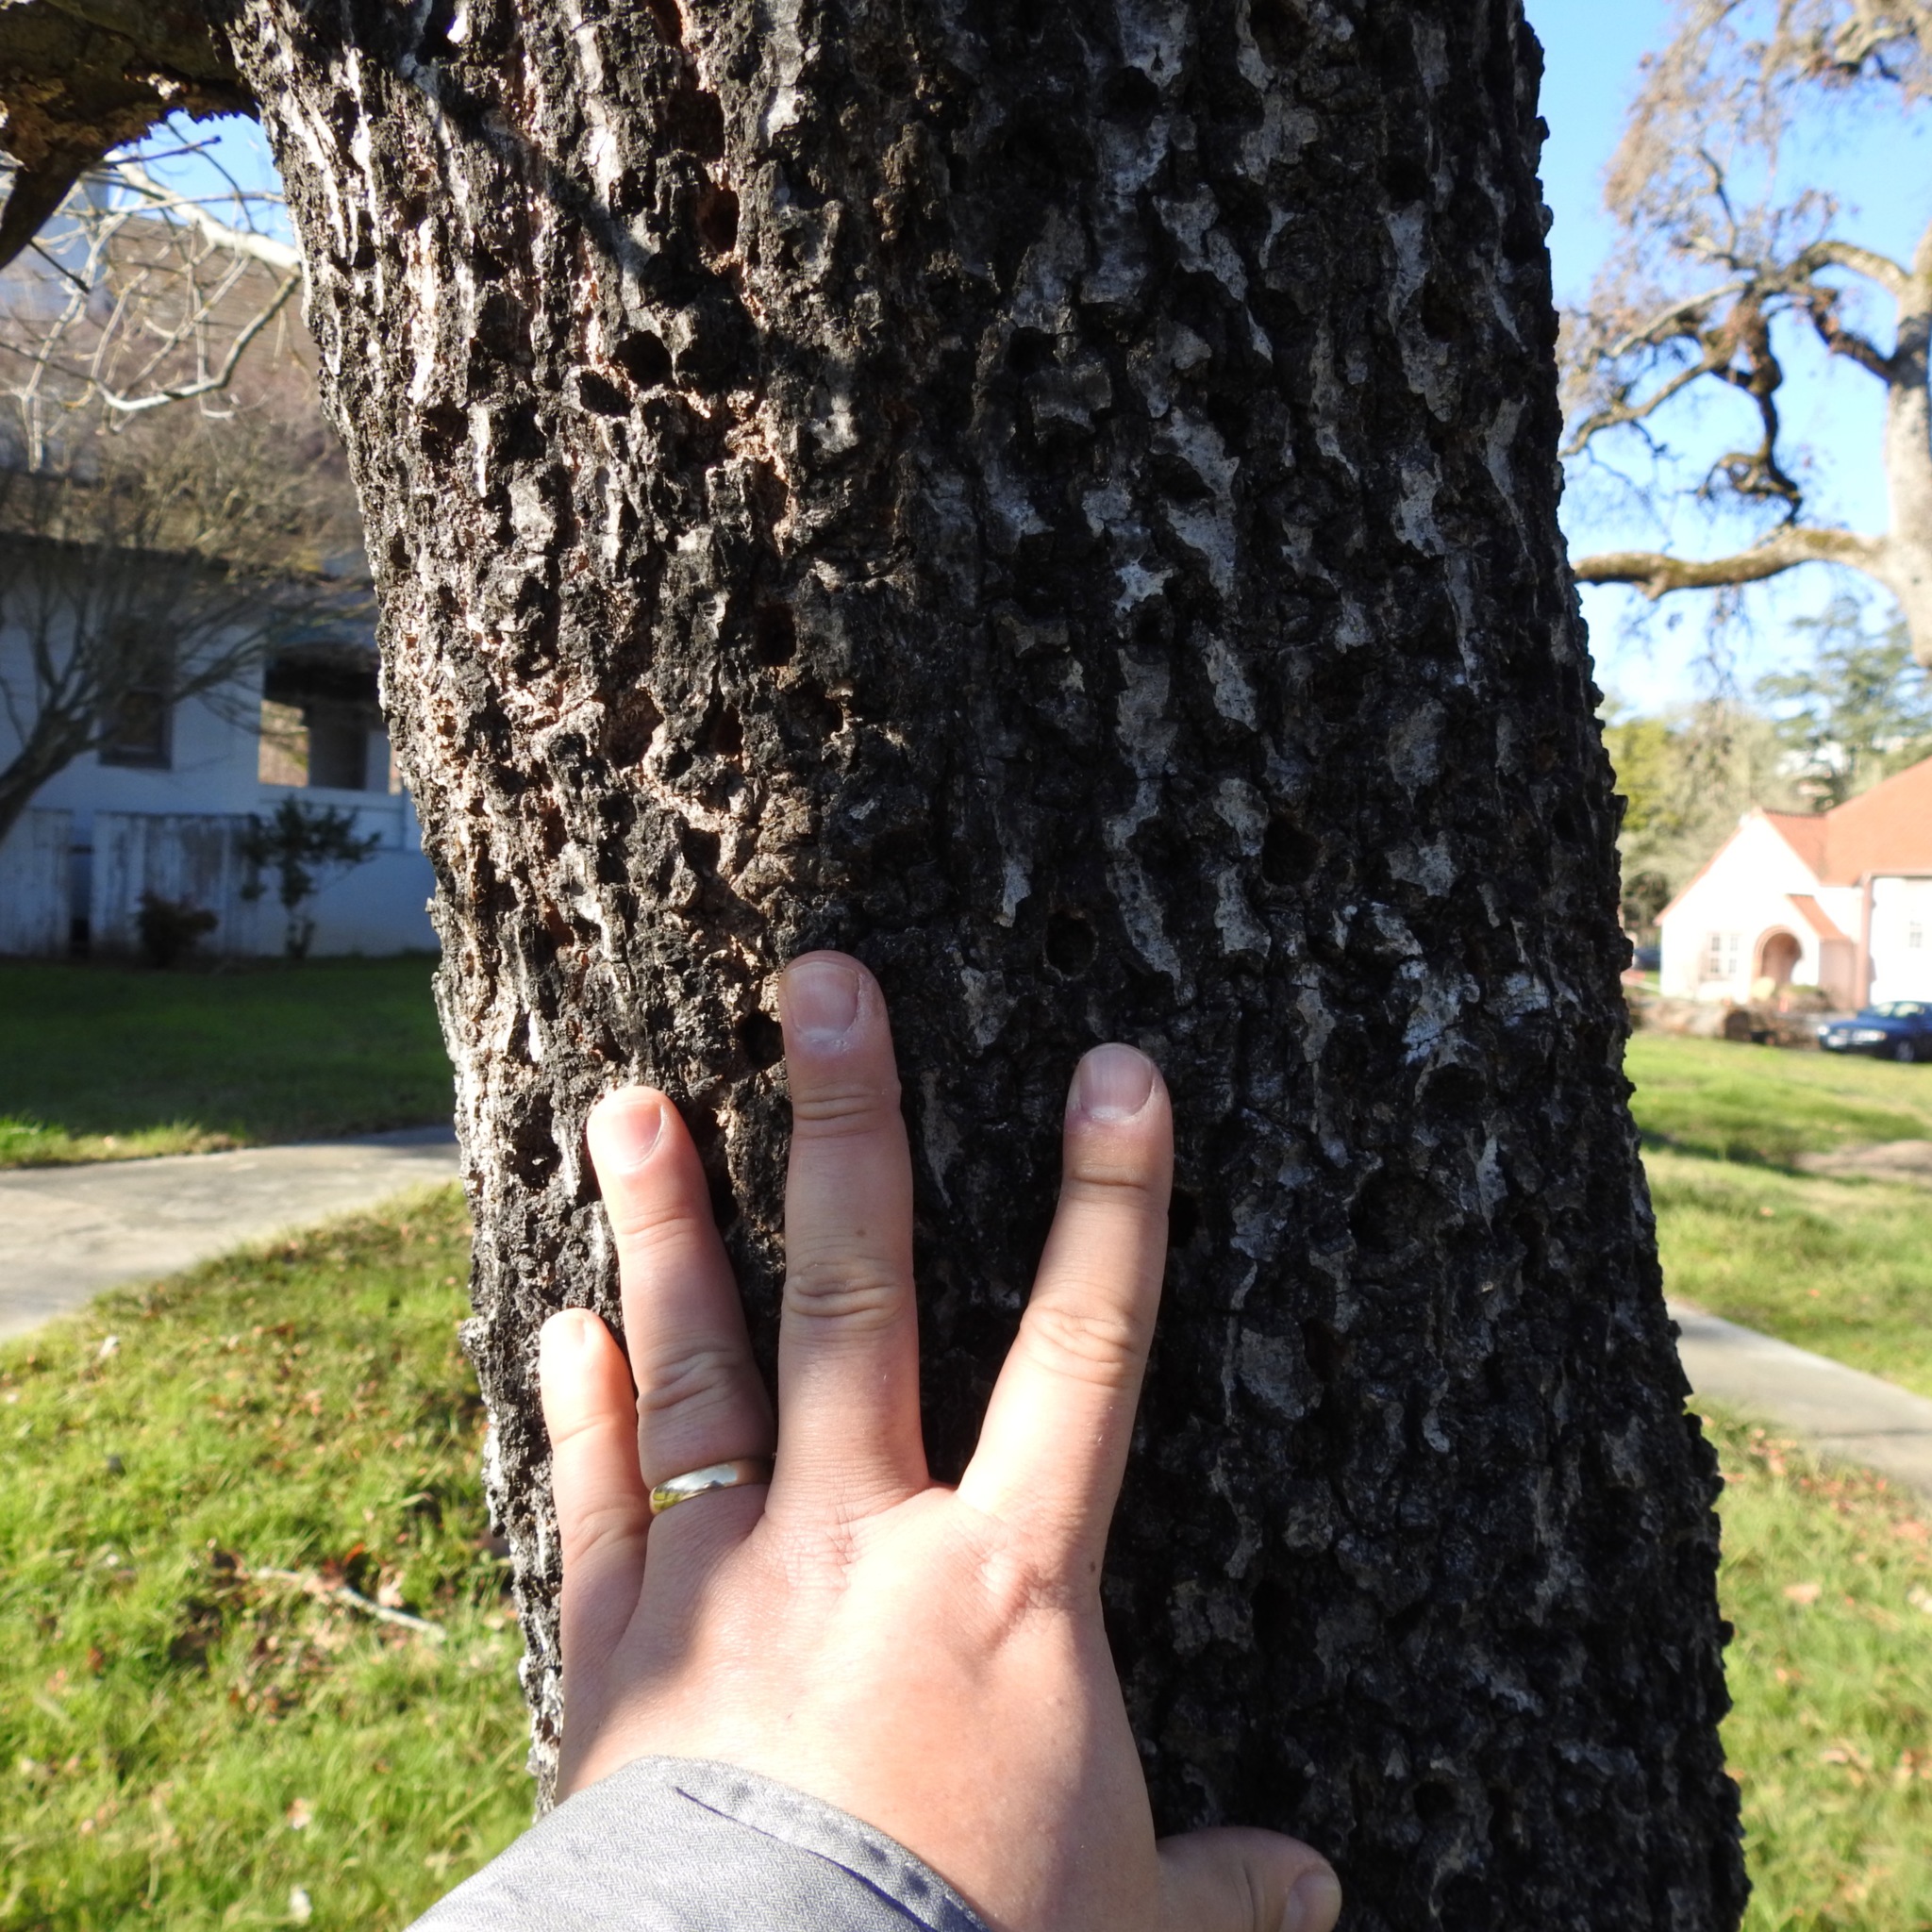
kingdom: Animalia
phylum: Chordata
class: Aves
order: Piciformes
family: Picidae
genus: Sphyrapicus
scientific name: Sphyrapicus
